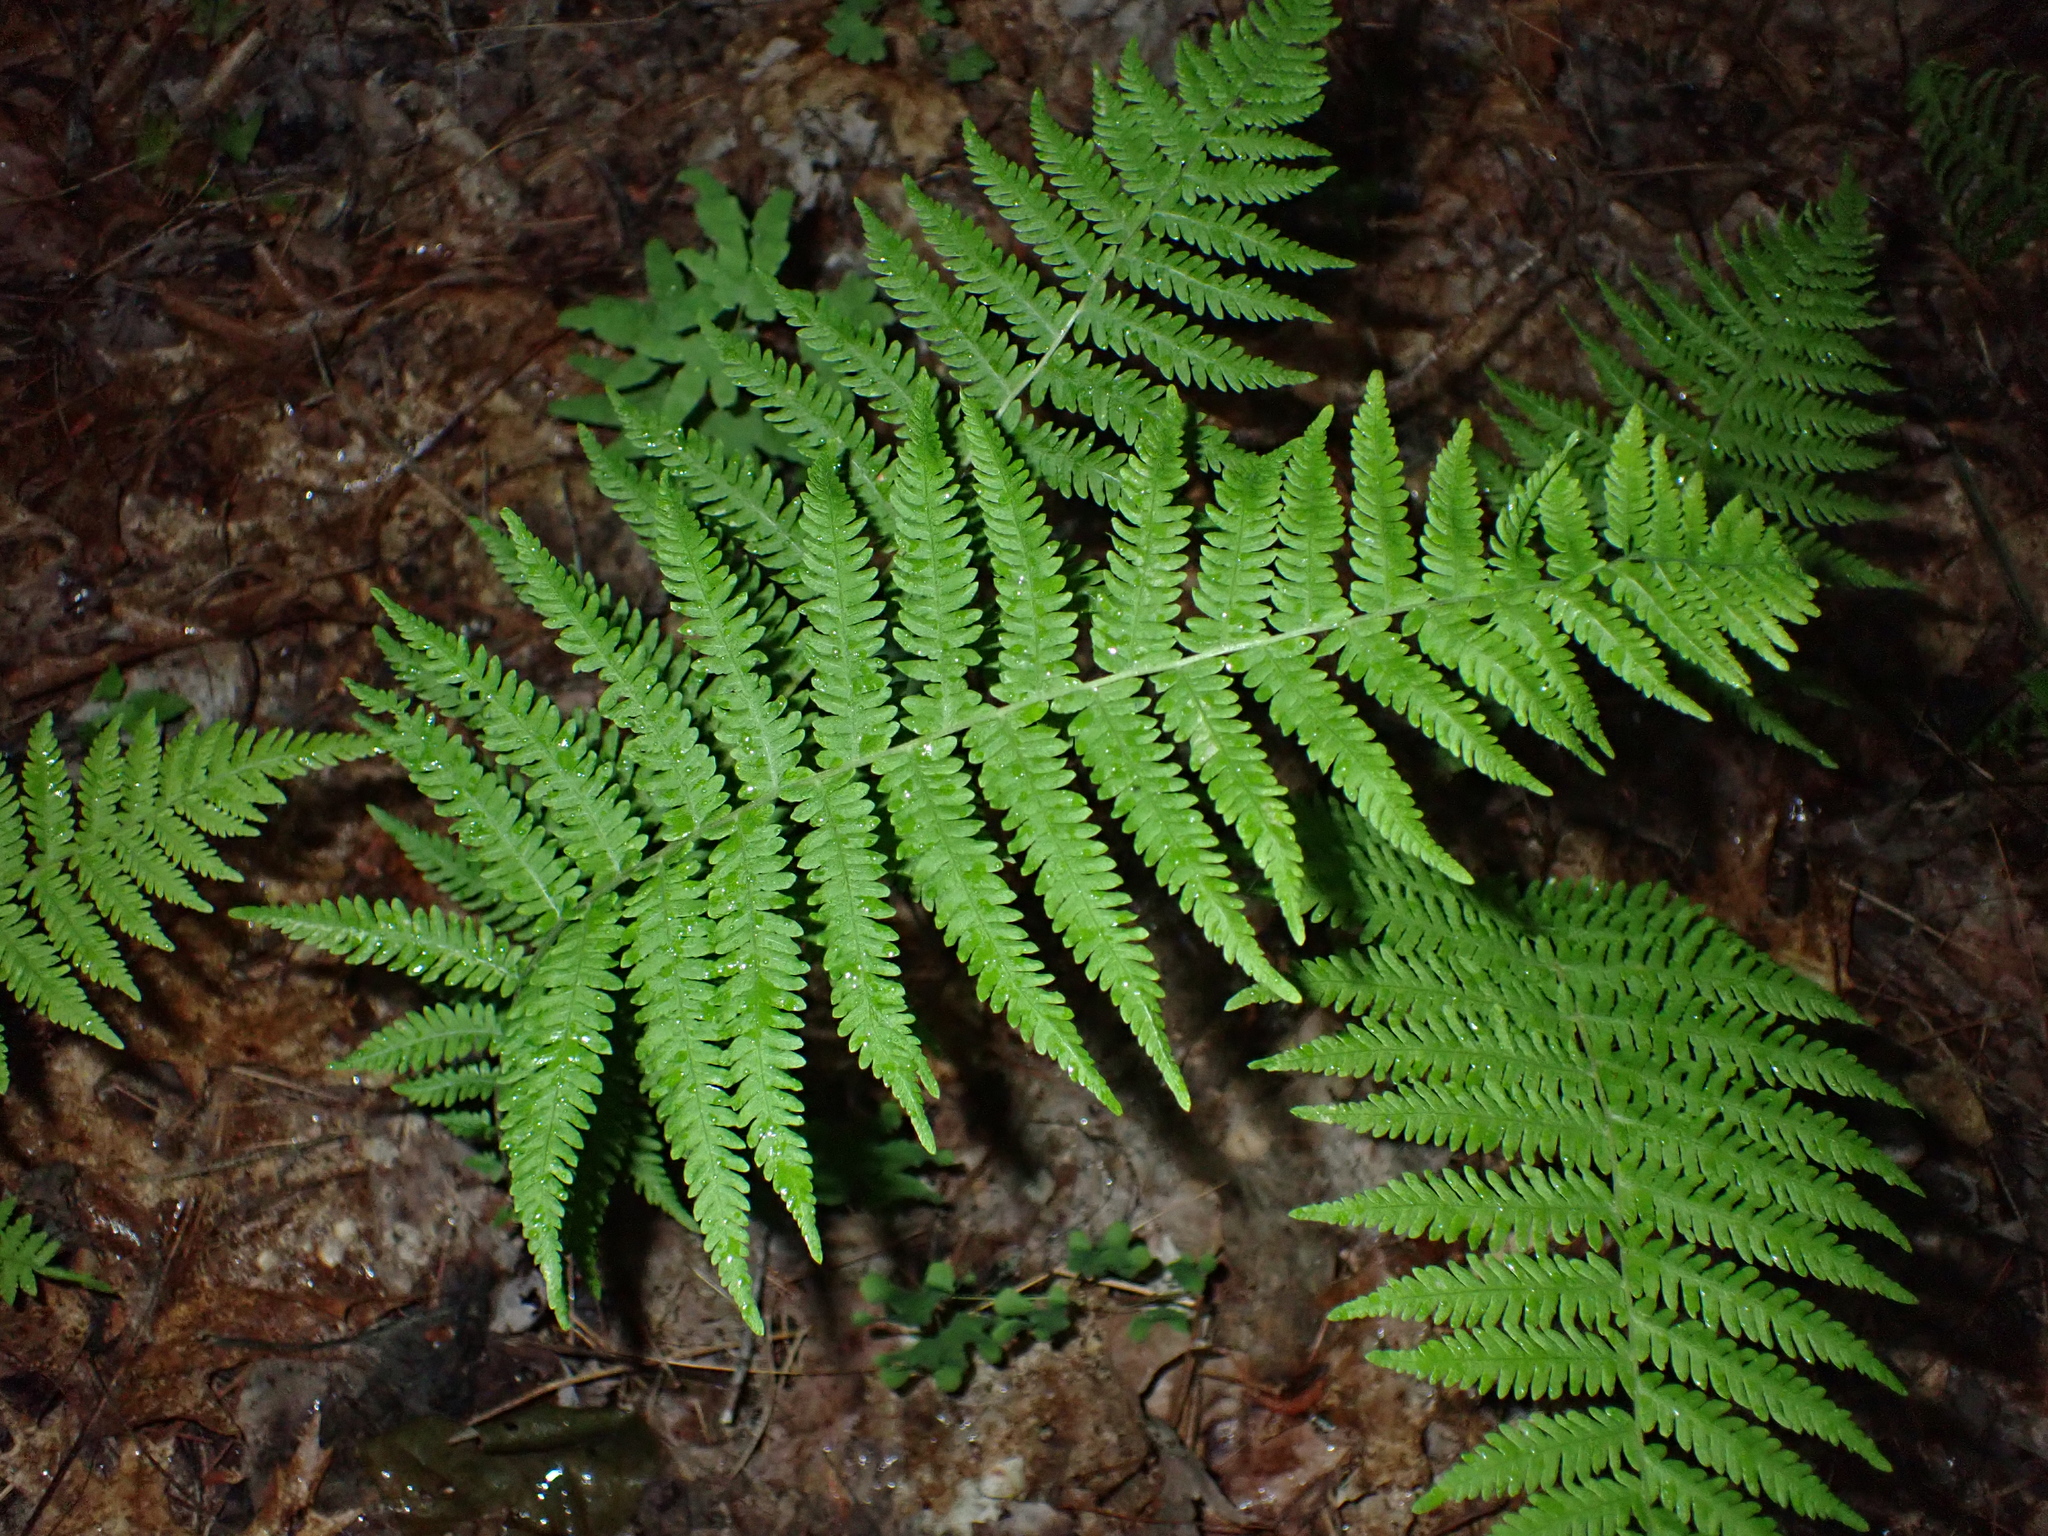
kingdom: Plantae
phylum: Tracheophyta
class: Polypodiopsida
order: Polypodiales
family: Thelypteridaceae
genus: Amauropelta
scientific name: Amauropelta noveboracensis
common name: New york fern
